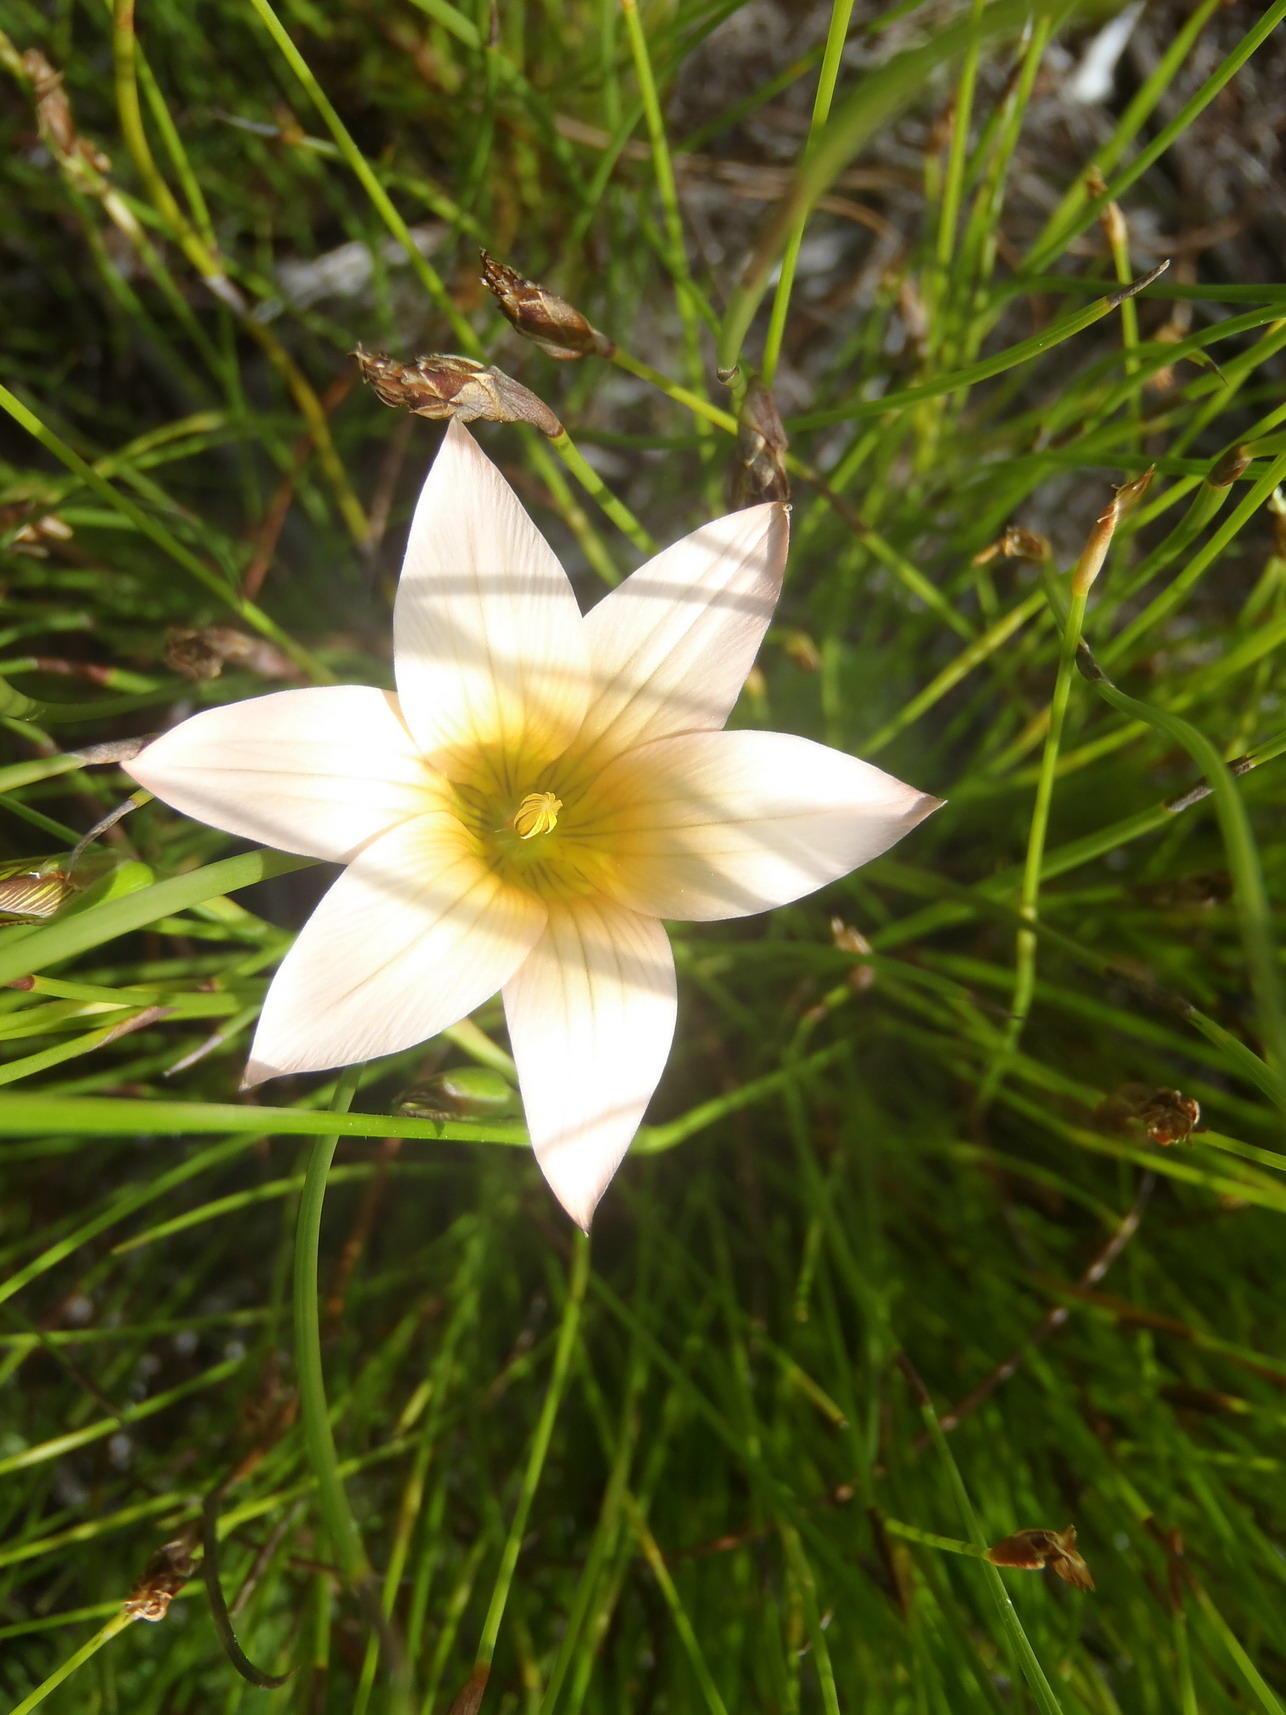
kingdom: Plantae
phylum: Tracheophyta
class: Liliopsida
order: Asparagales
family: Iridaceae
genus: Romulea
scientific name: Romulea dichotoma
